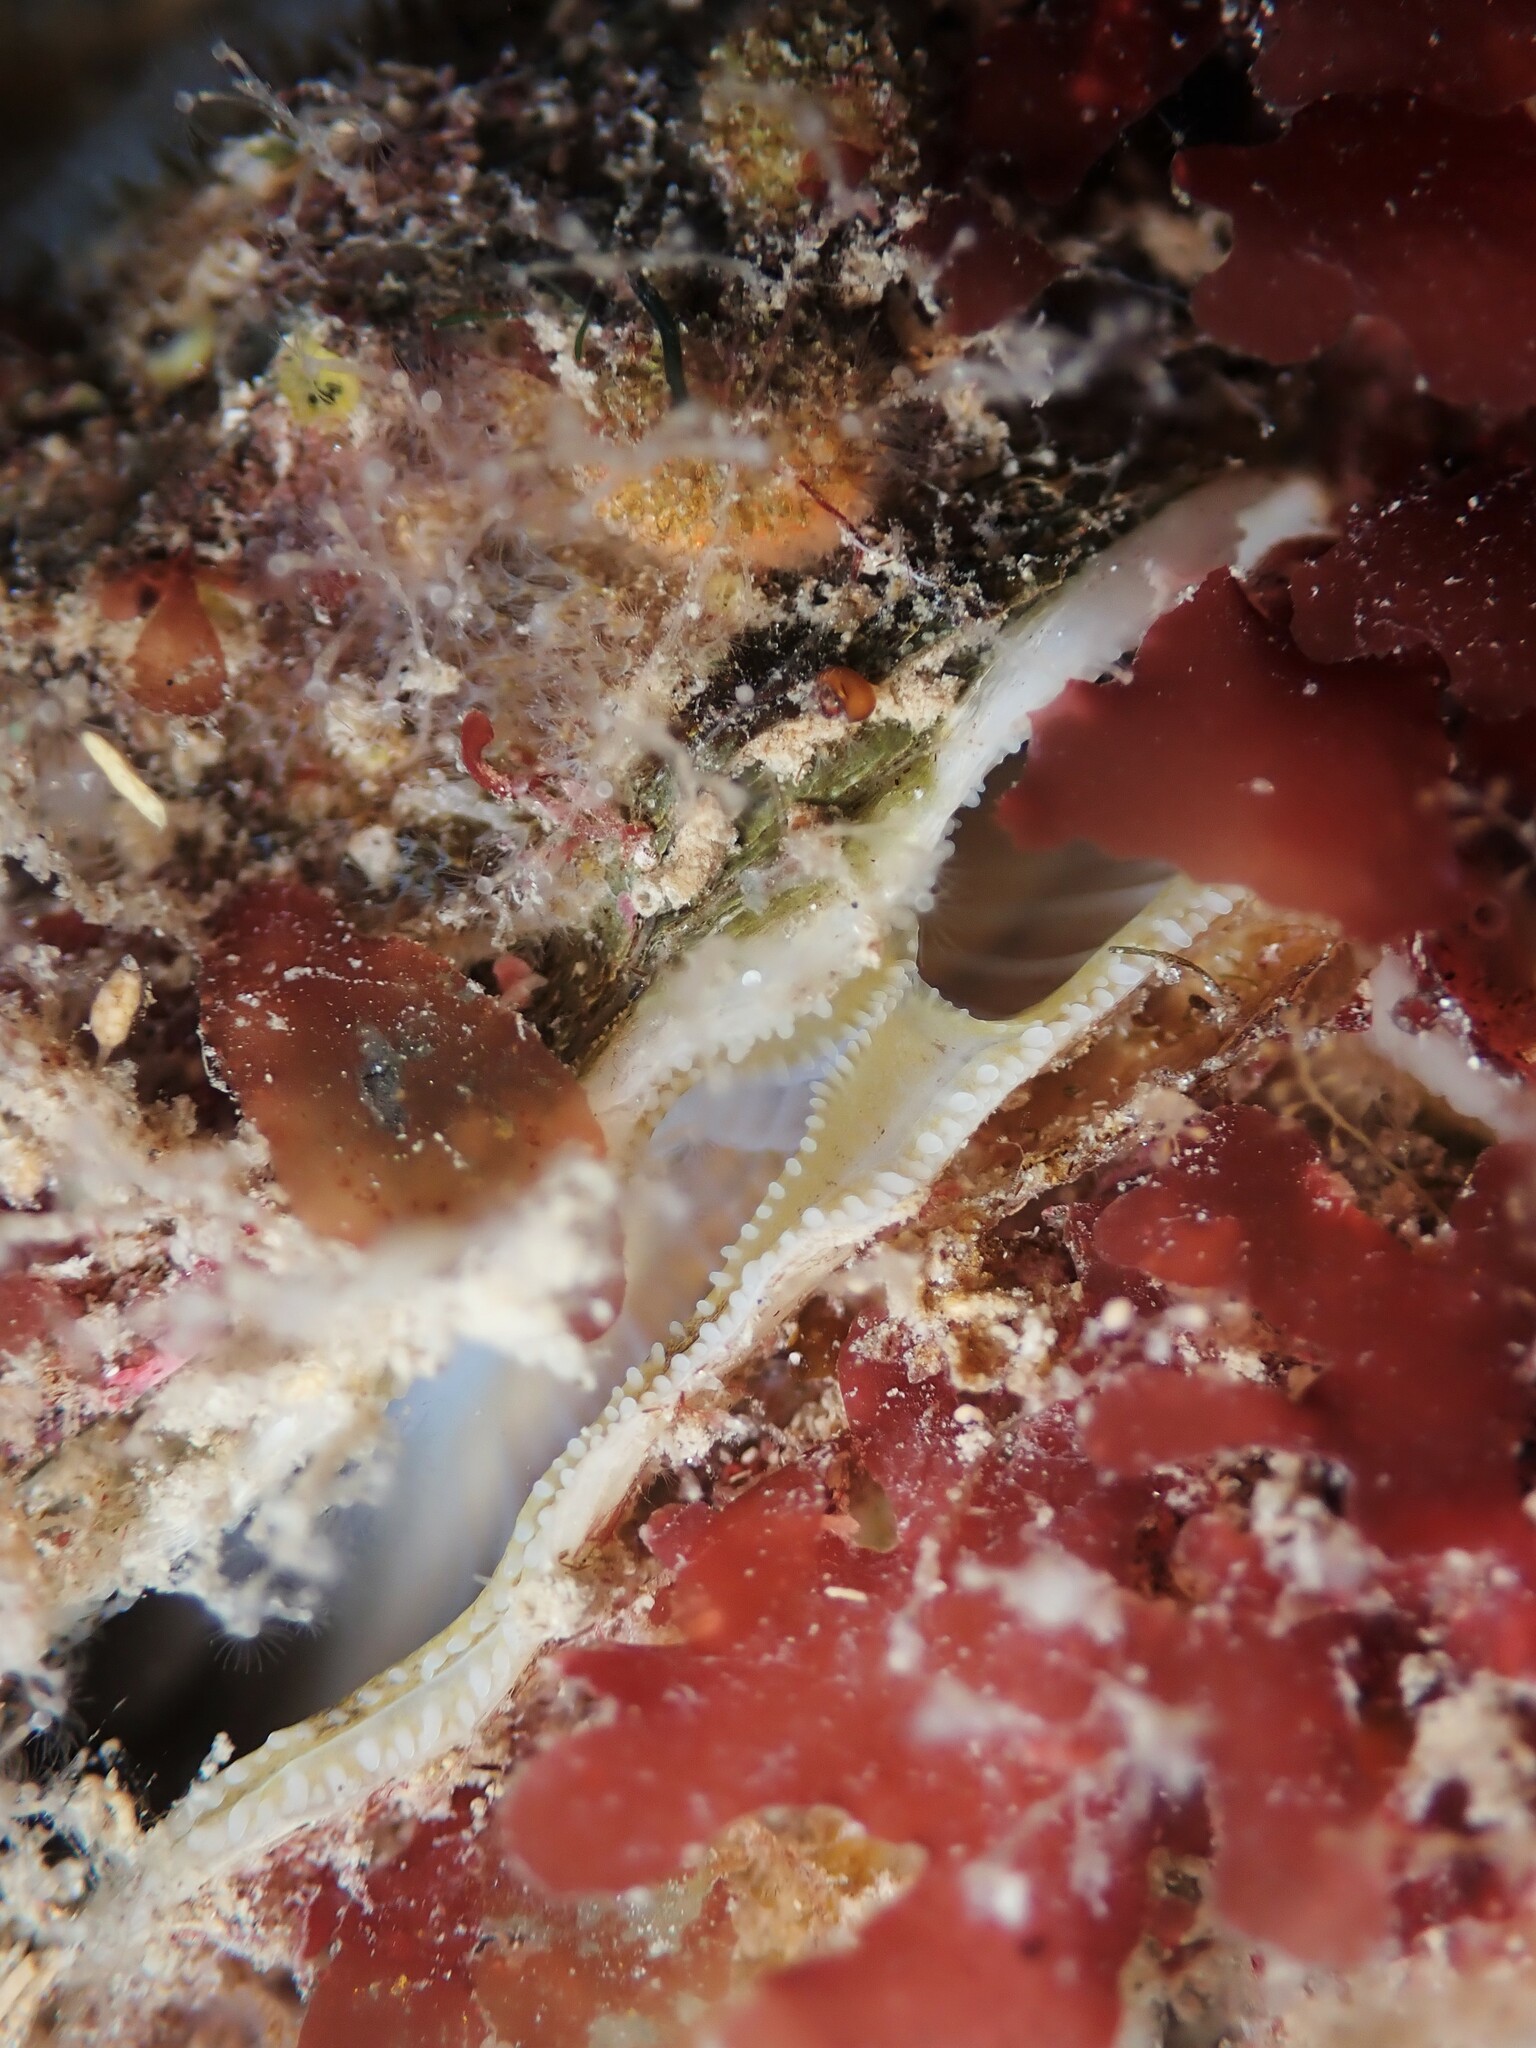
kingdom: Animalia
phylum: Mollusca
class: Bivalvia
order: Pectinida
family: Anomiidae
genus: Anomia
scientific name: Anomia trigonopsis
